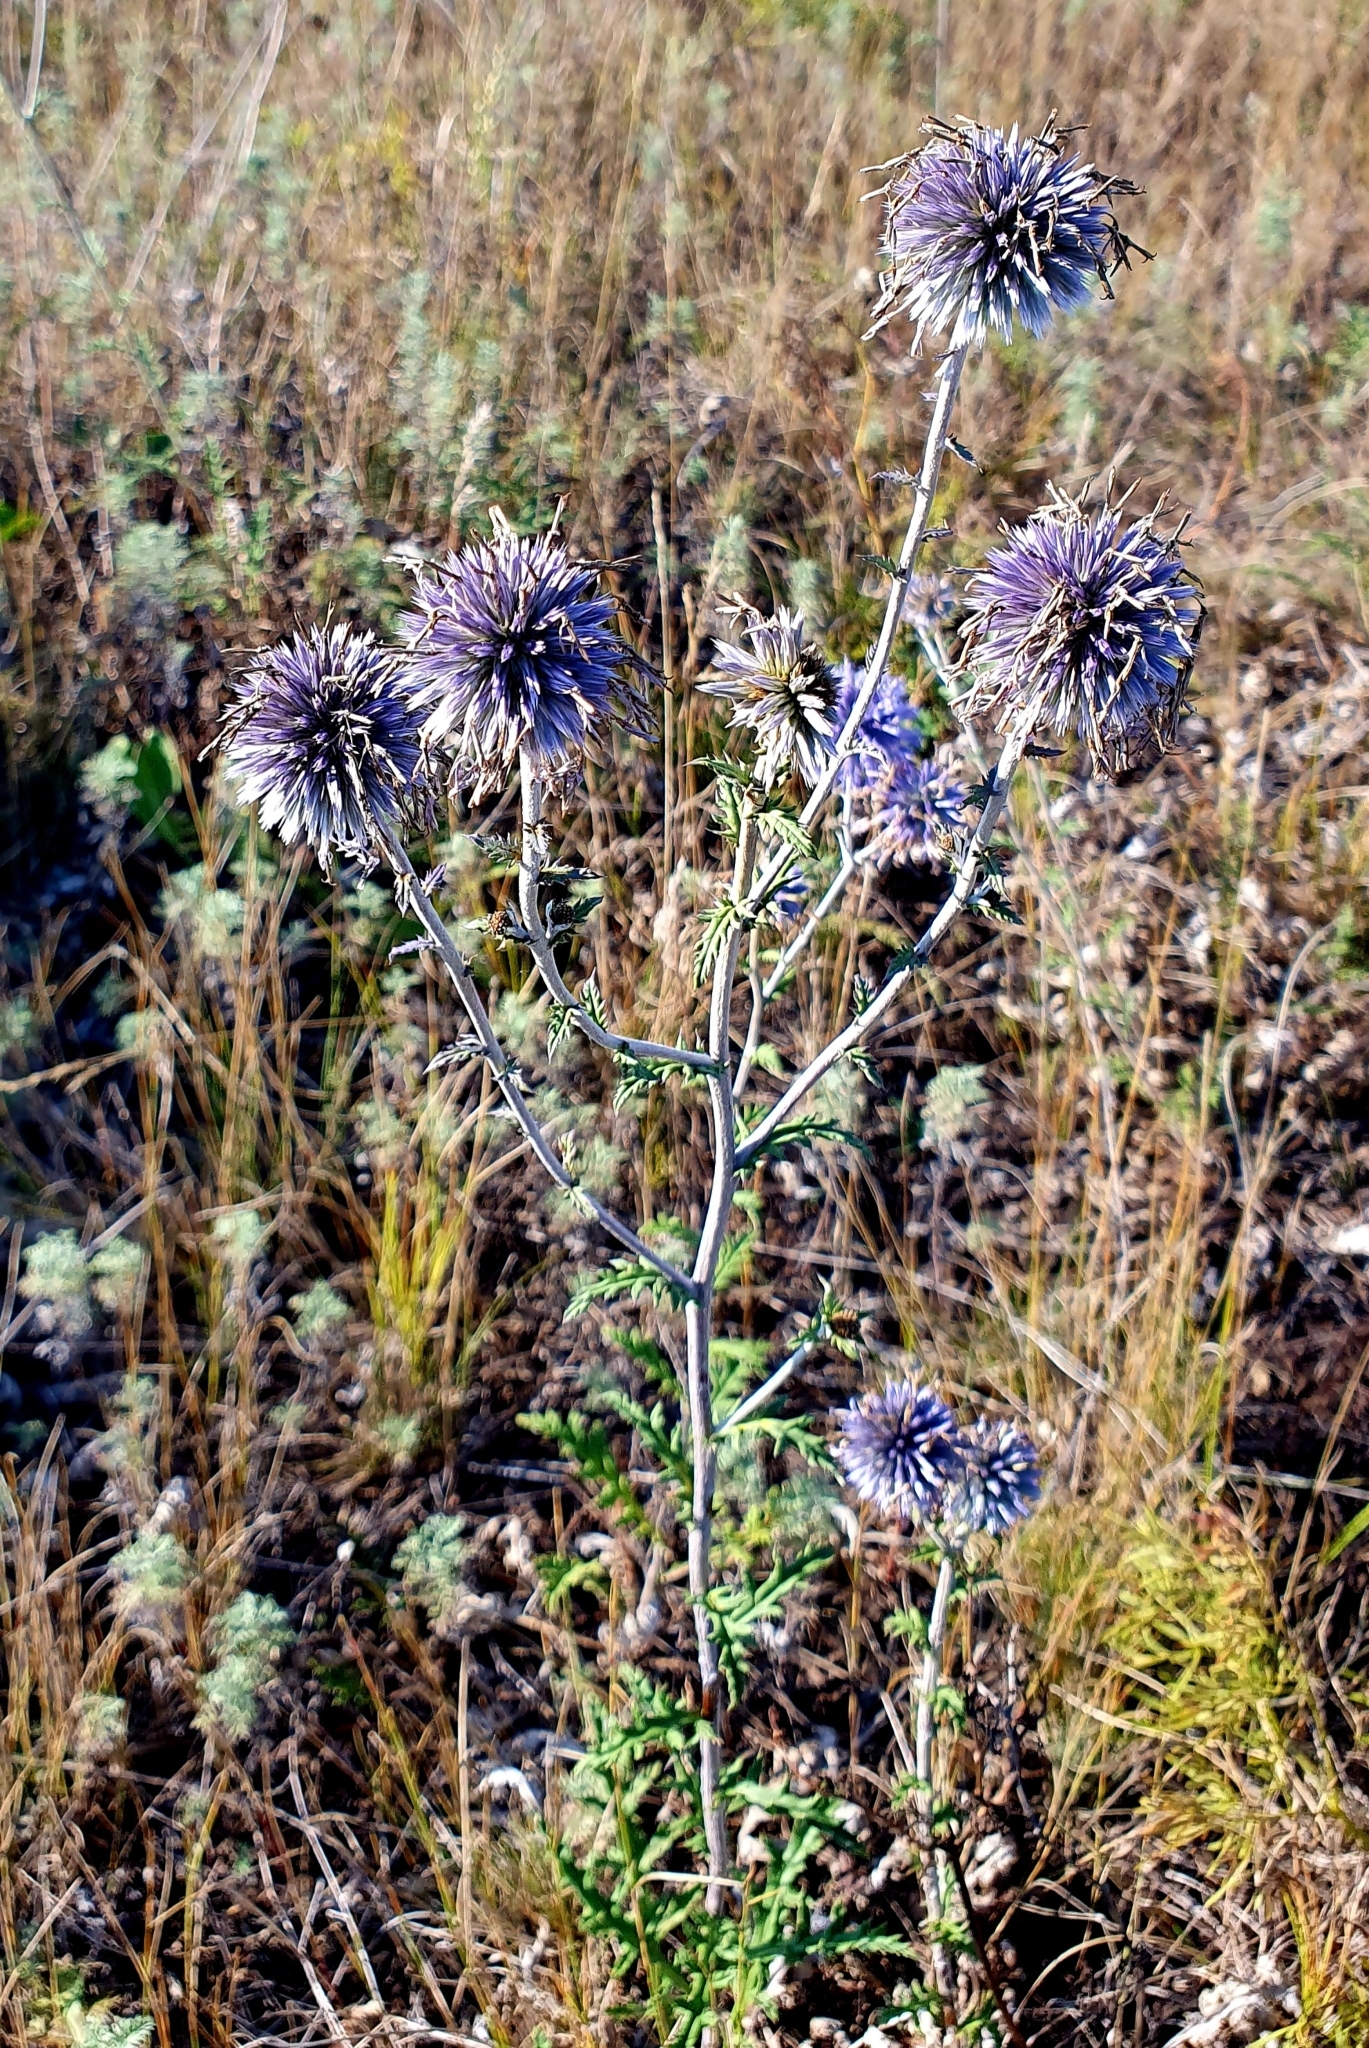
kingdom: Plantae
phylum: Tracheophyta
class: Magnoliopsida
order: Asterales
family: Asteraceae
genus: Echinops
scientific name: Echinops saksonovii
